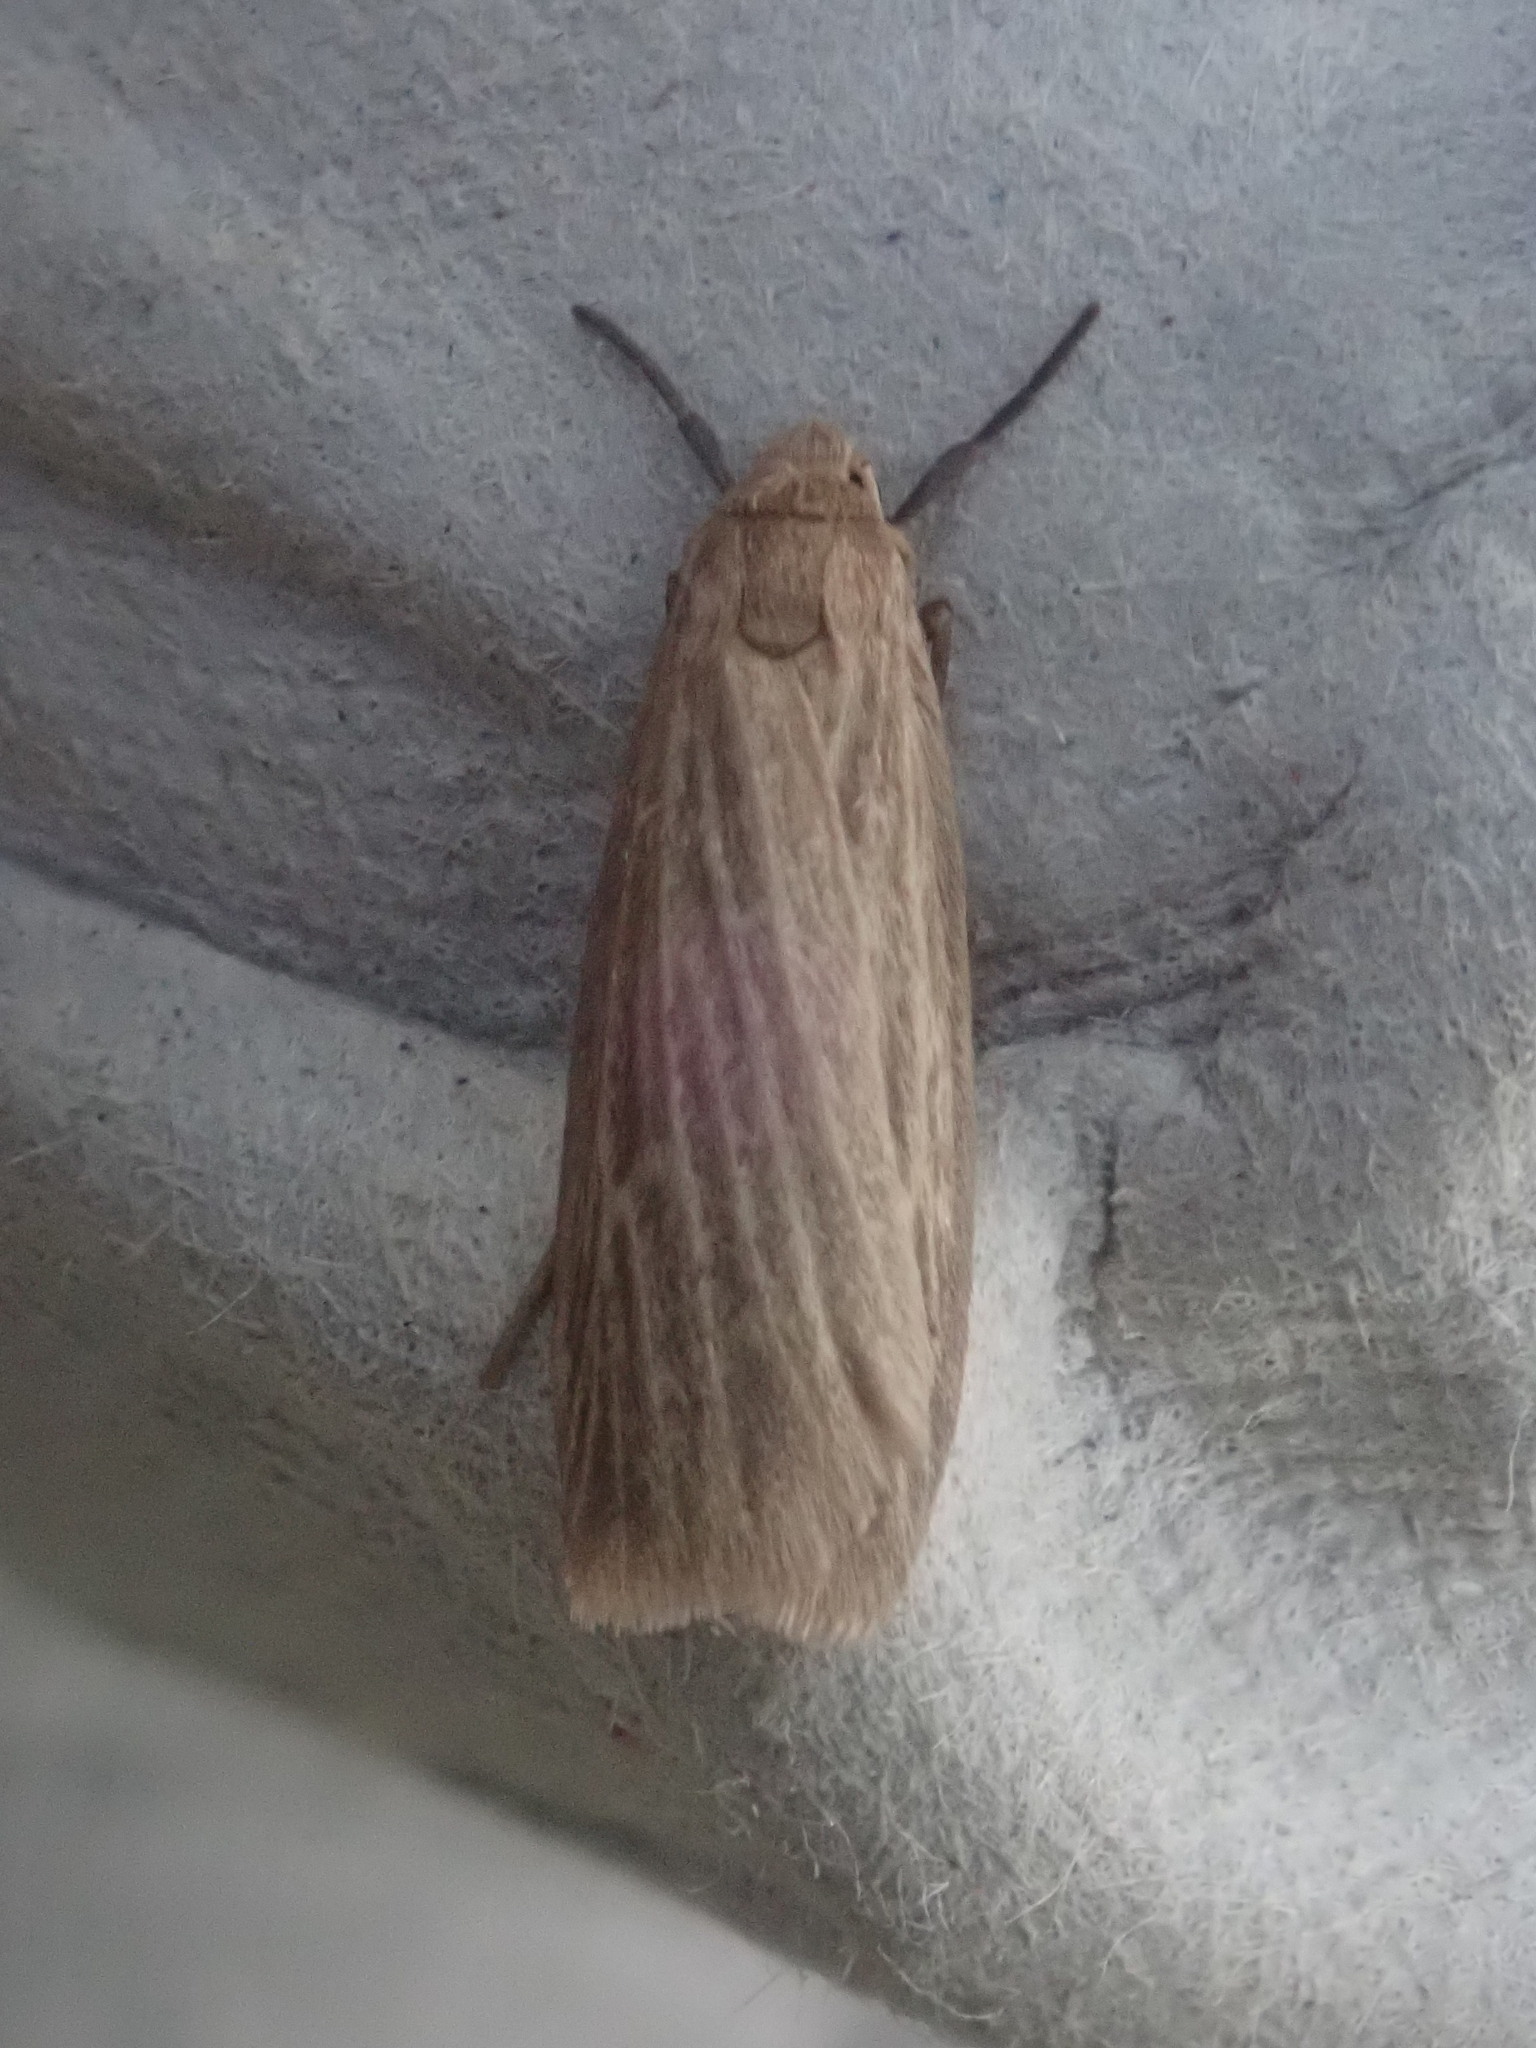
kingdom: Animalia
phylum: Arthropoda
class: Insecta
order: Lepidoptera
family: Erebidae
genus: Crambidia
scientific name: Crambidia pallida
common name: Pale lichen moth
